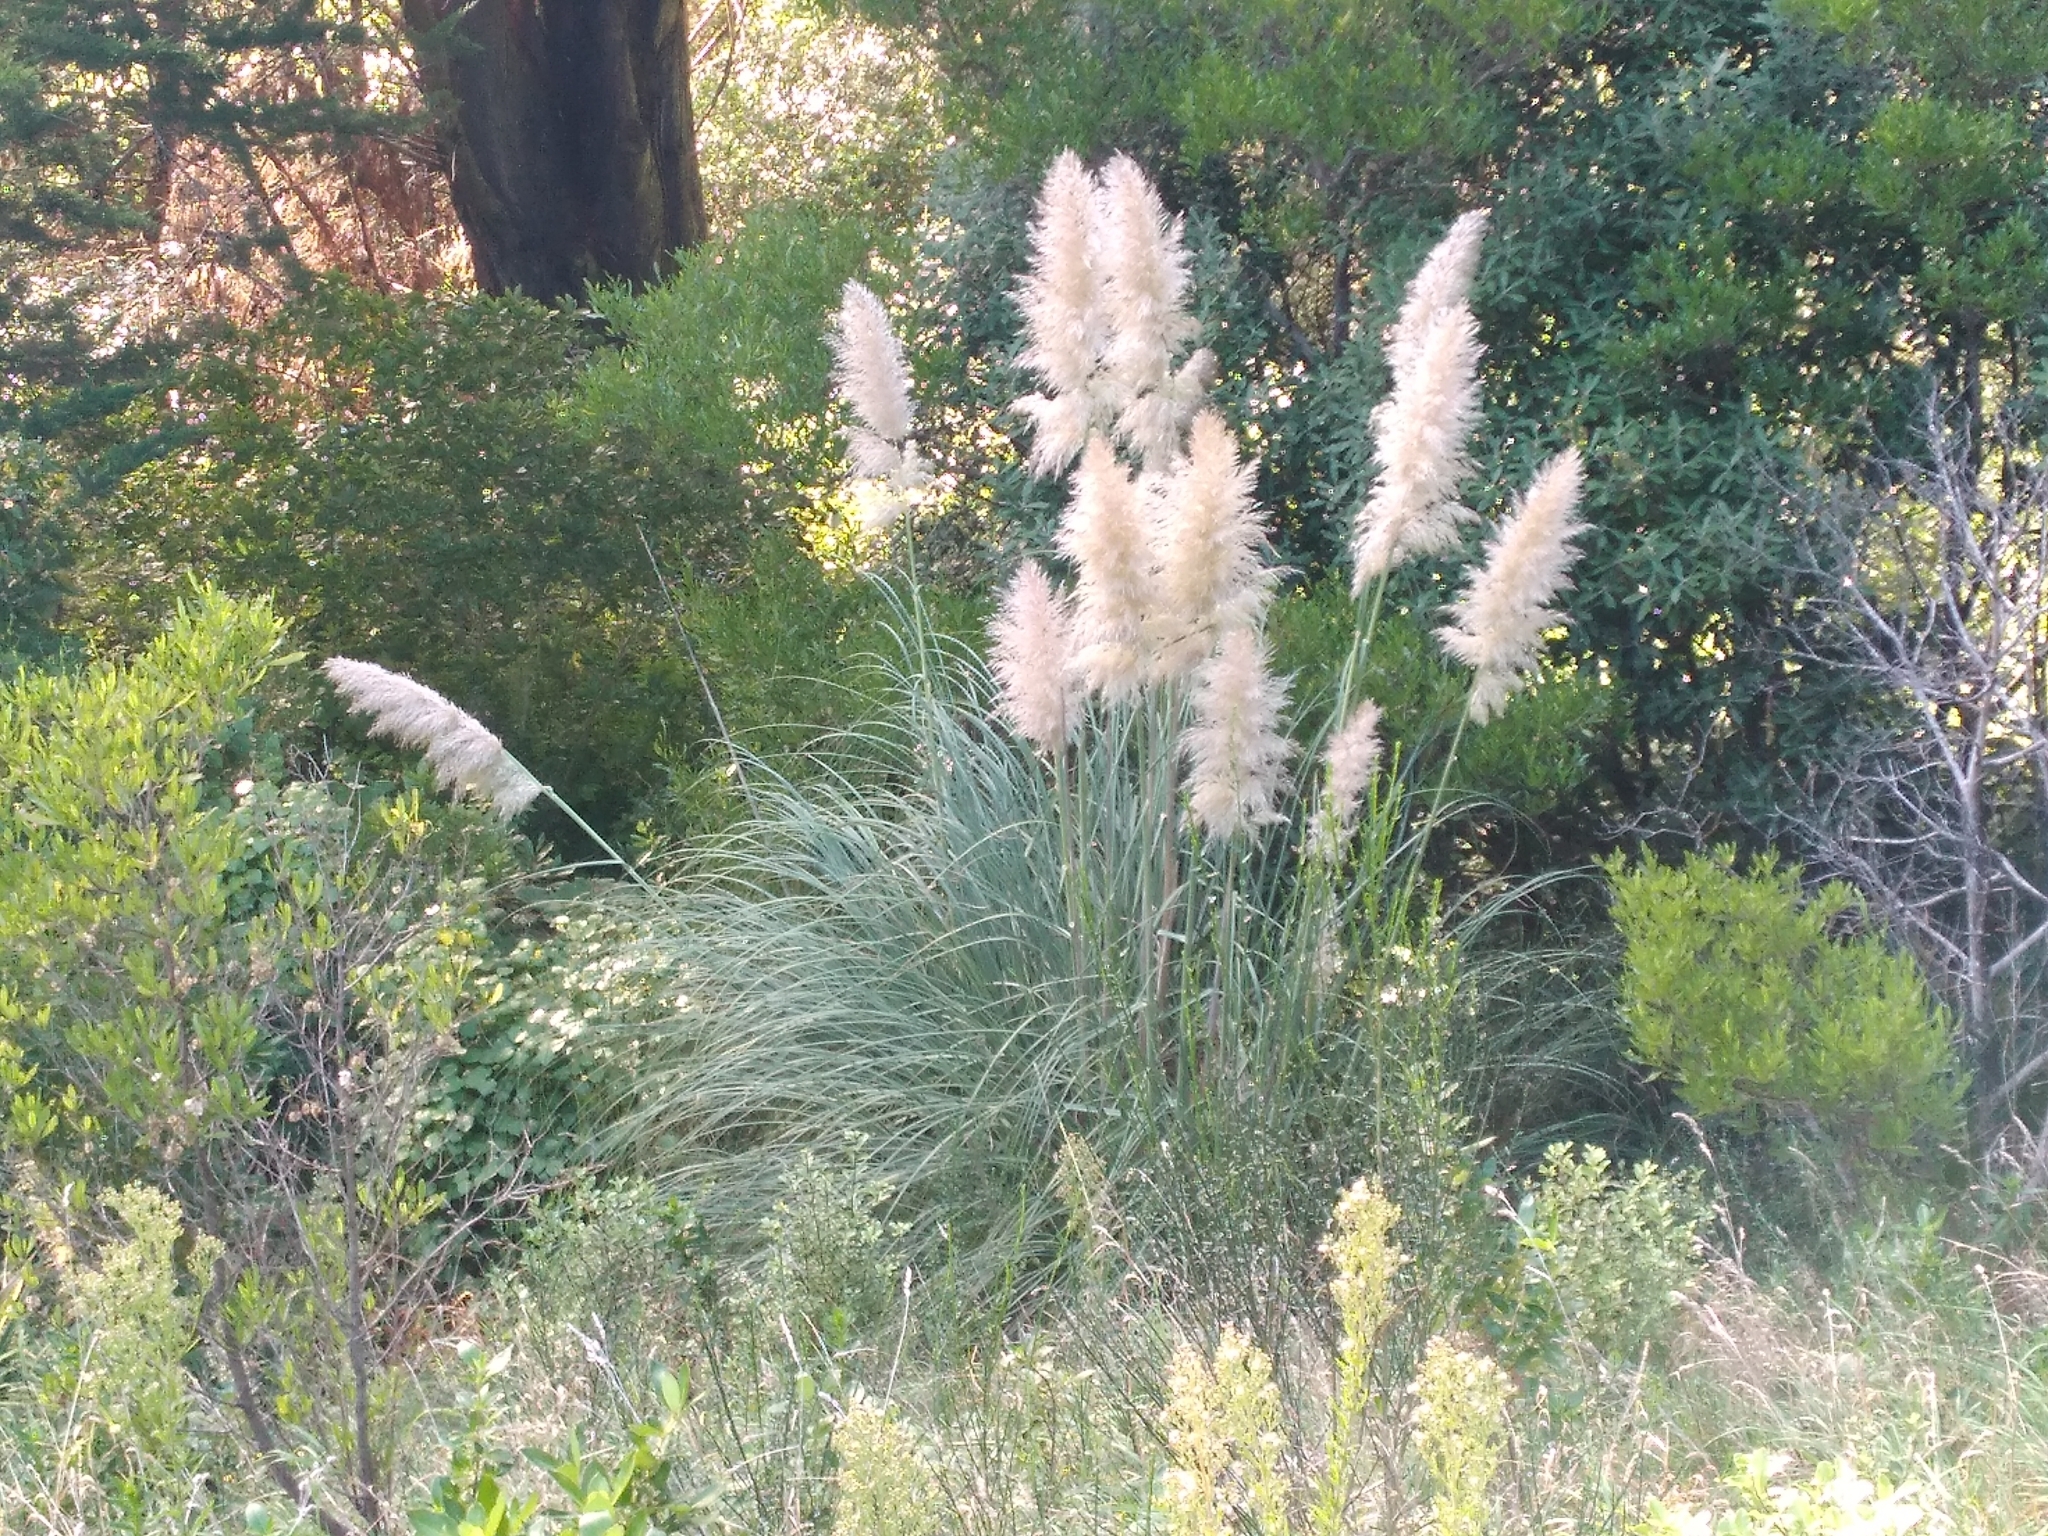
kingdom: Plantae
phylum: Tracheophyta
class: Liliopsida
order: Poales
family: Poaceae
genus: Cortaderia
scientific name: Cortaderia selloana
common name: Uruguayan pampas grass
